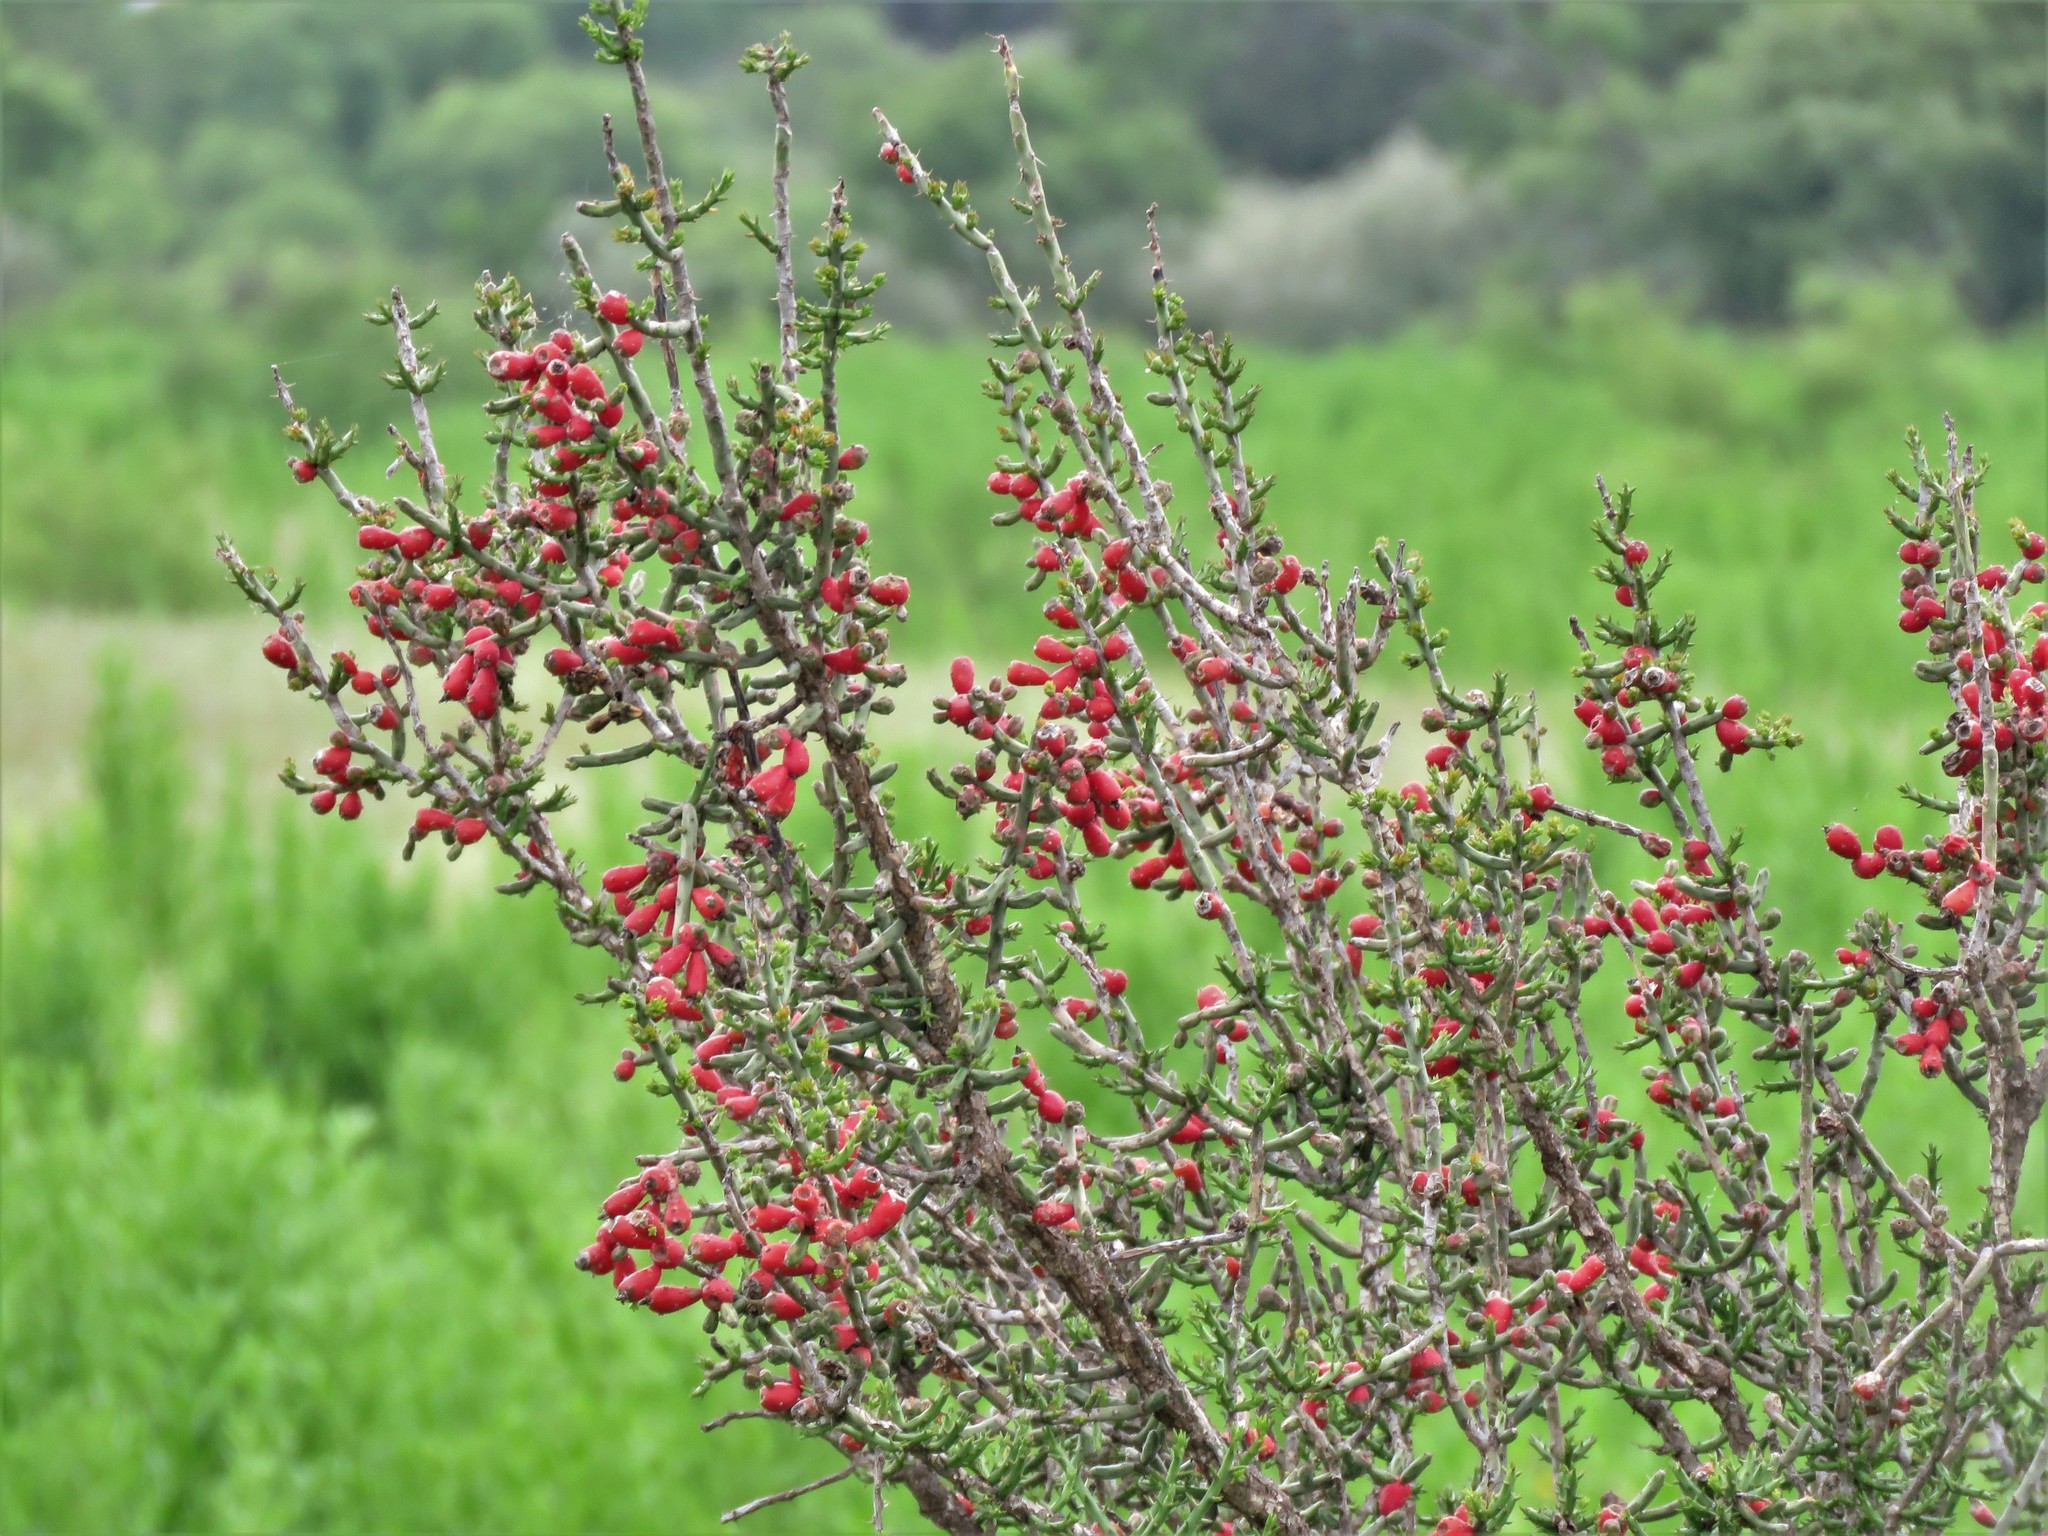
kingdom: Plantae
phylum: Tracheophyta
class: Magnoliopsida
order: Caryophyllales
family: Cactaceae
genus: Cylindropuntia
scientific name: Cylindropuntia leptocaulis
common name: Christmas cactus
